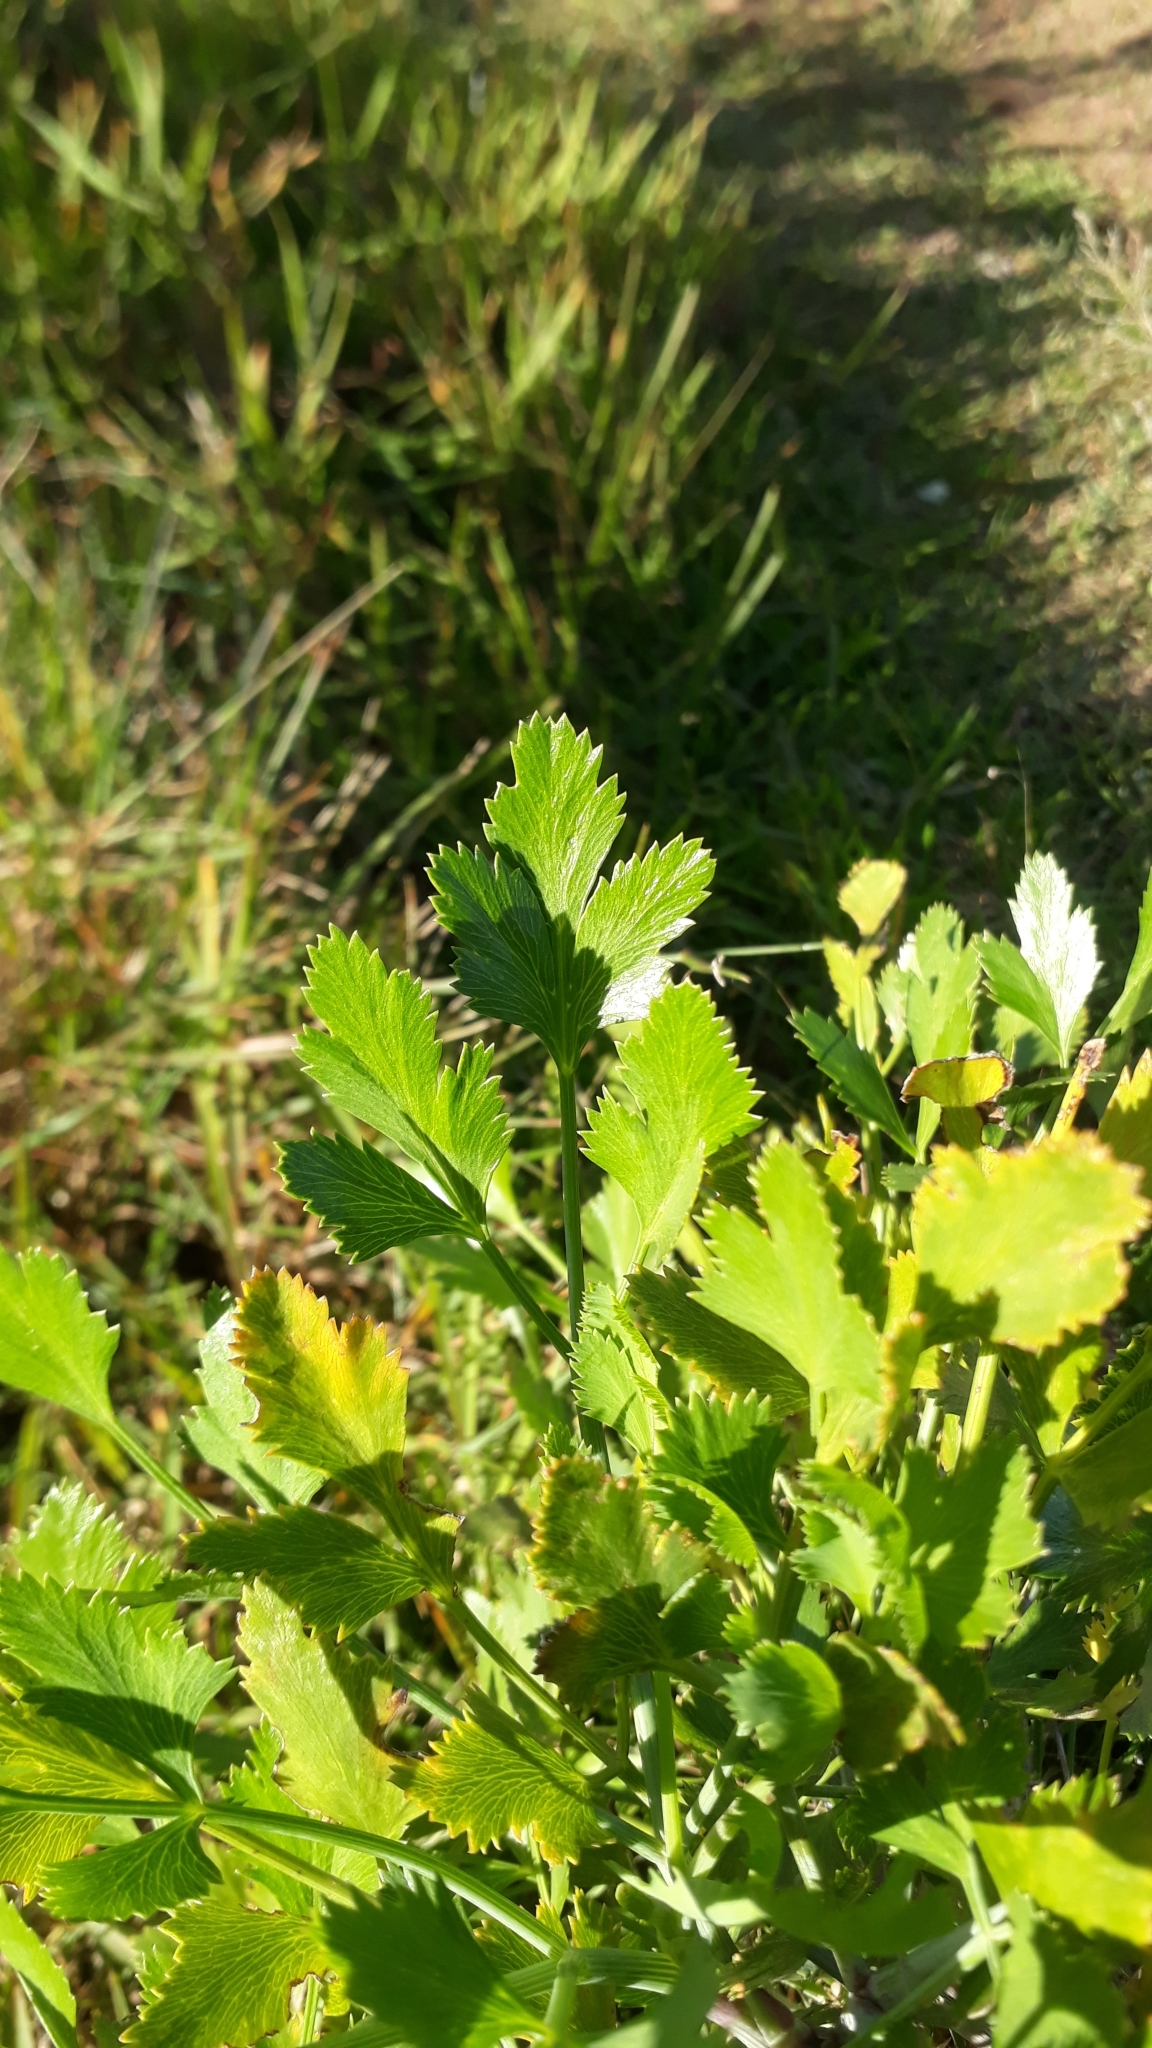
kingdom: Plantae
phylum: Tracheophyta
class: Magnoliopsida
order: Apiales
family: Apiaceae
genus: Notobubon
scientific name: Notobubon galbanum
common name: Blisterbush
